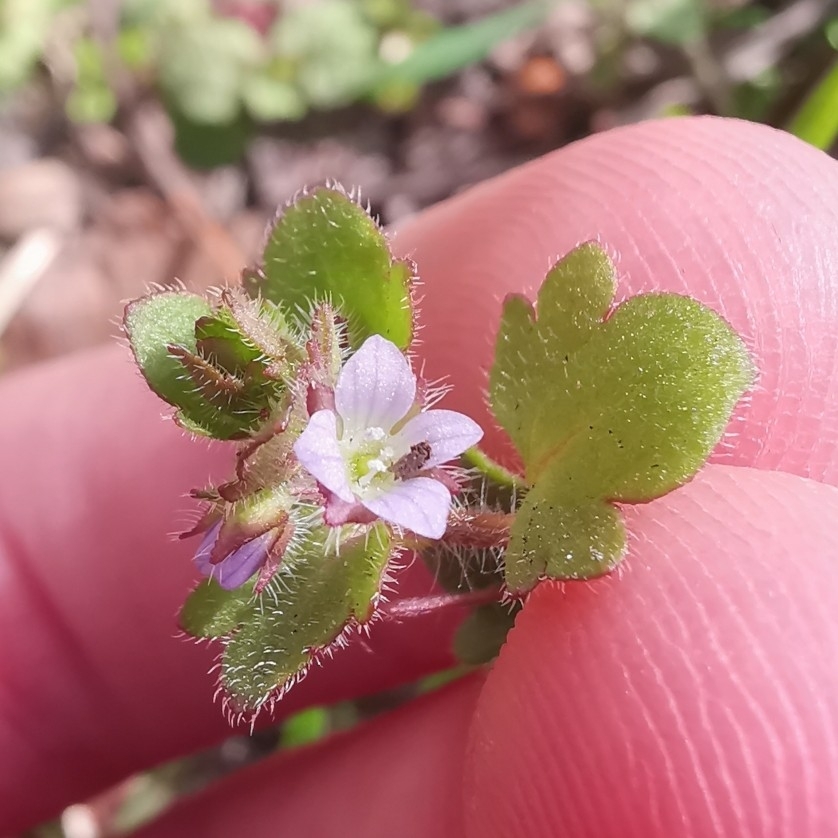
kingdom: Plantae
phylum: Tracheophyta
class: Magnoliopsida
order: Lamiales
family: Plantaginaceae
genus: Veronica
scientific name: Veronica sublobata
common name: False ivy-leaved speedwell
